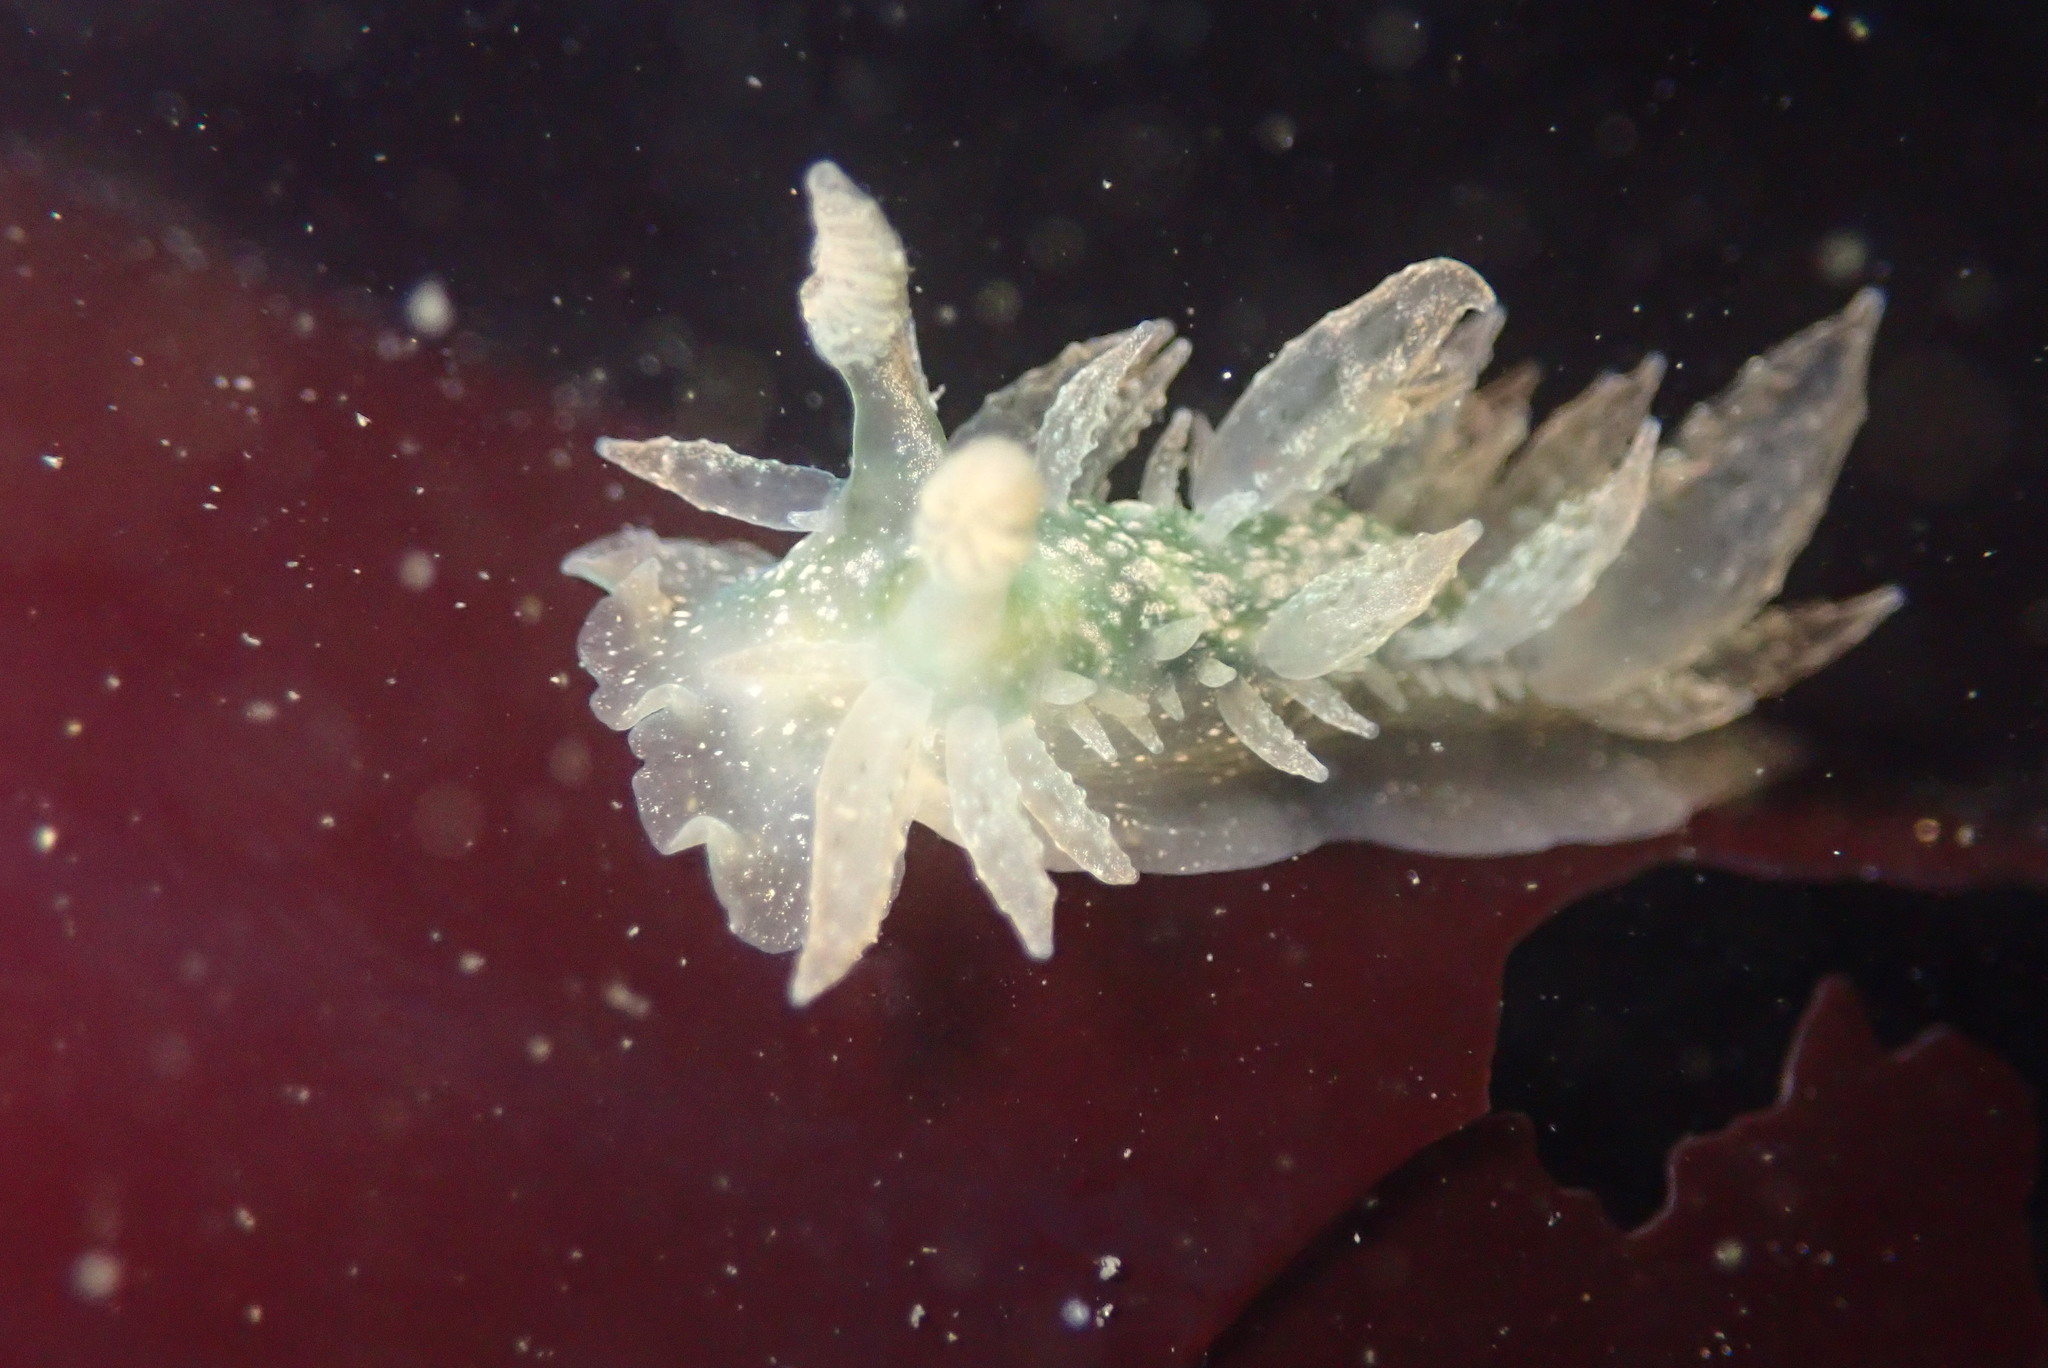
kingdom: Animalia
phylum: Mollusca
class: Gastropoda
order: Nudibranchia
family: Dironidae
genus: Dirona
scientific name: Dirona picta
